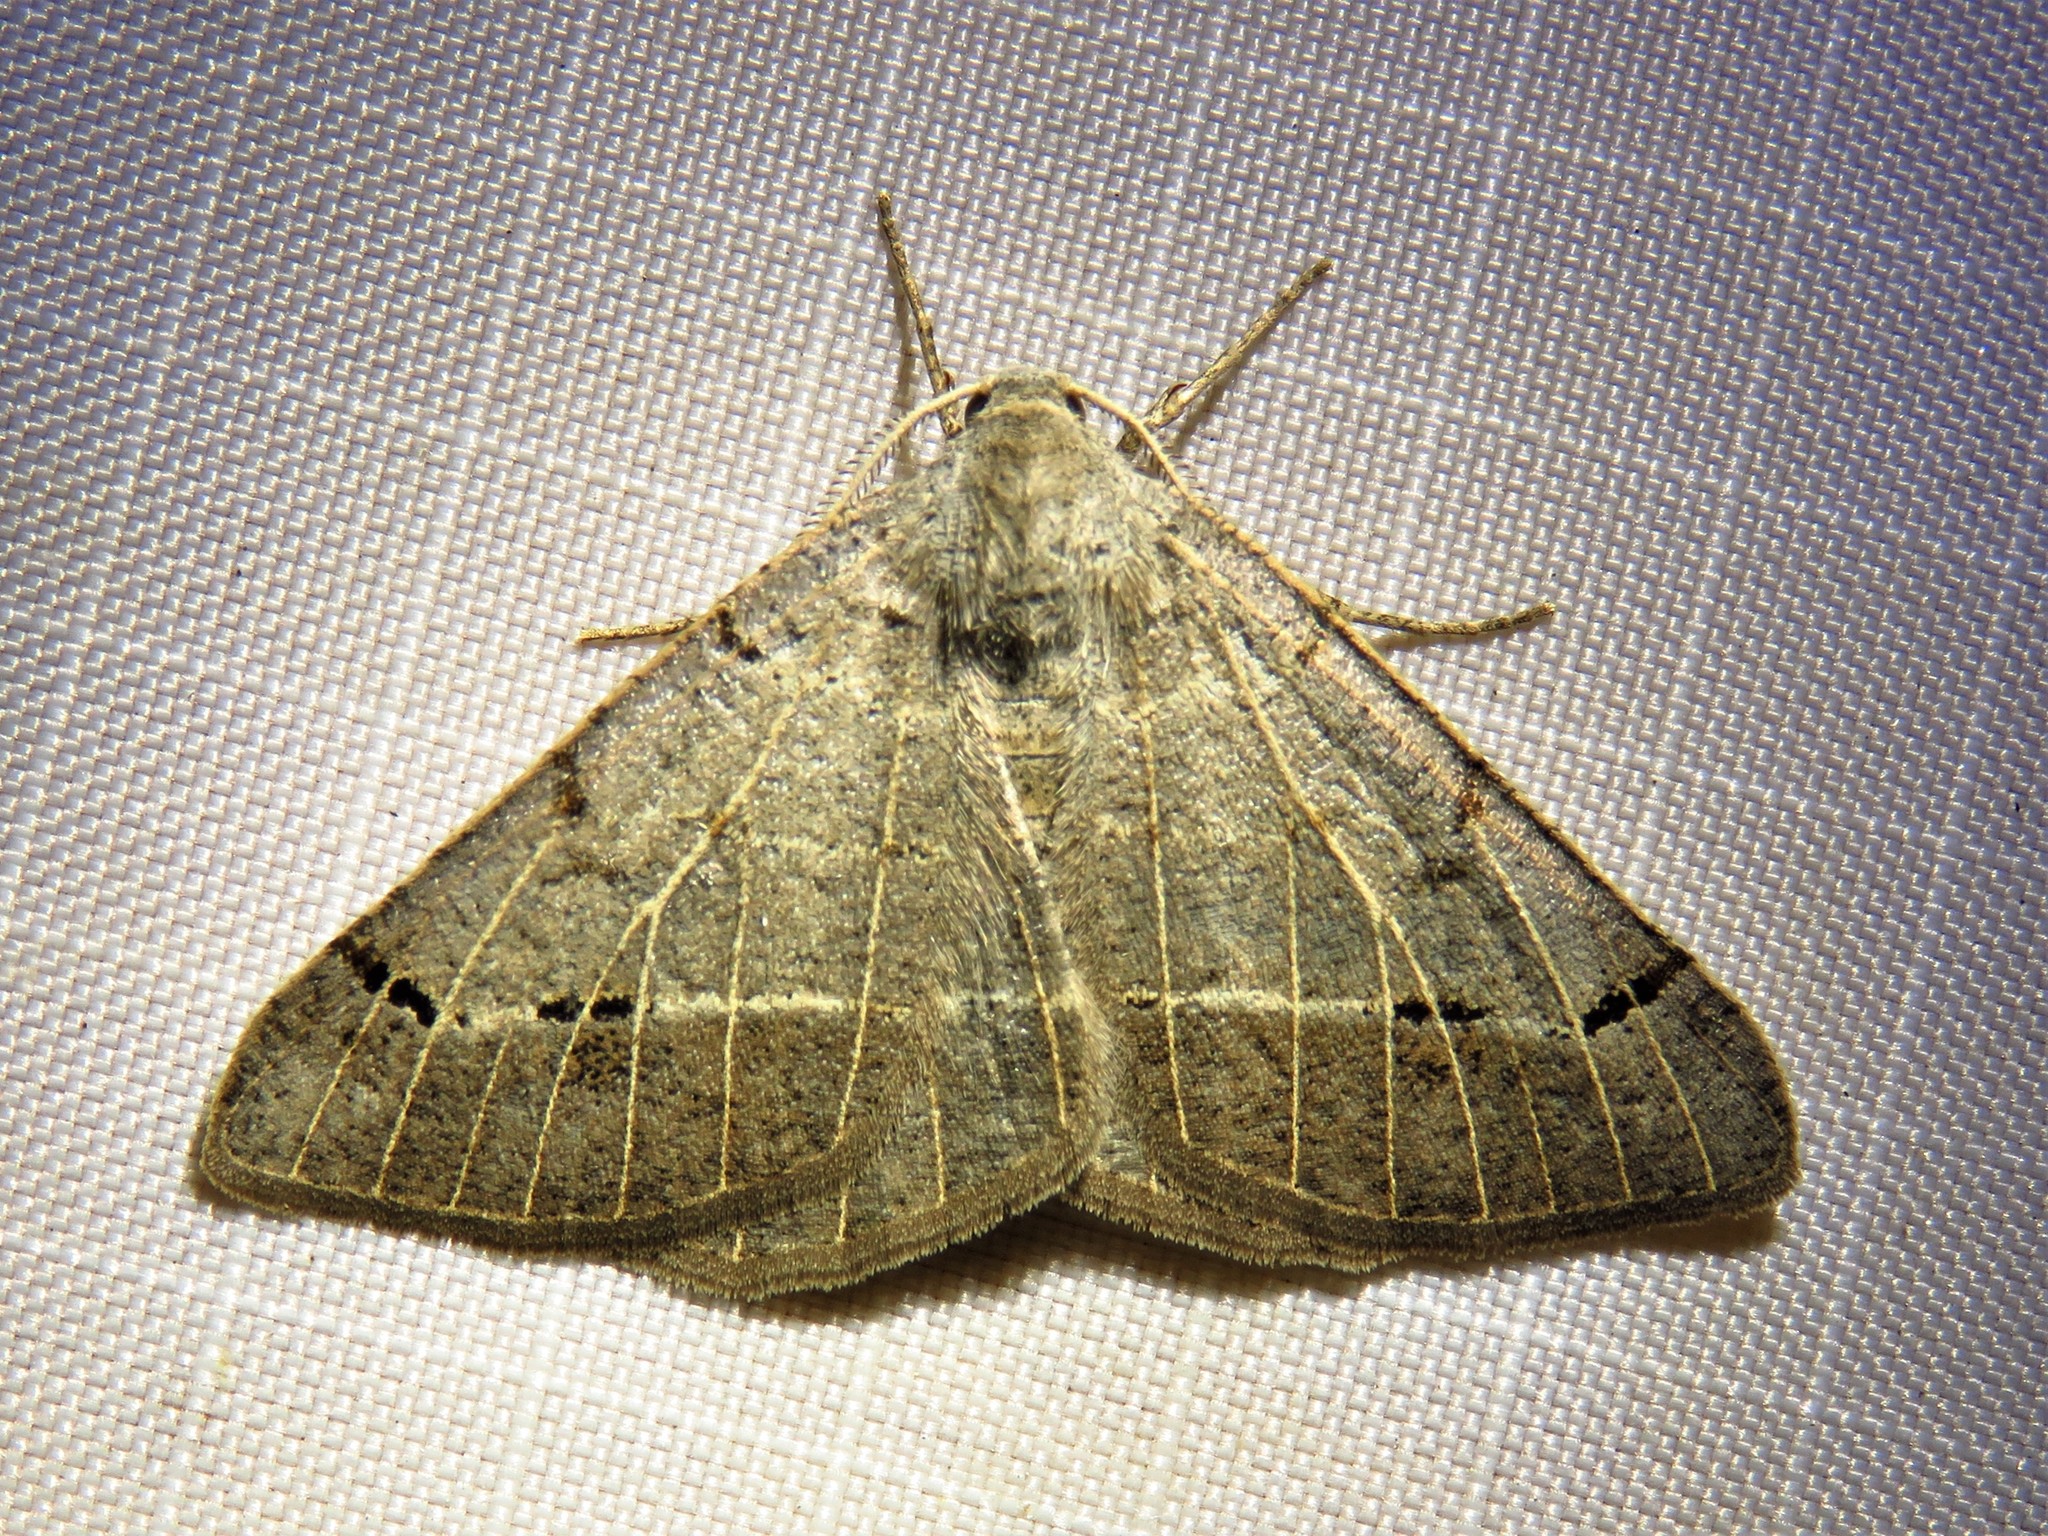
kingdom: Animalia
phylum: Arthropoda
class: Insecta
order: Lepidoptera
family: Geometridae
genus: Isturgia
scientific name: Isturgia dislocaria
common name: Pale-viened enconista
